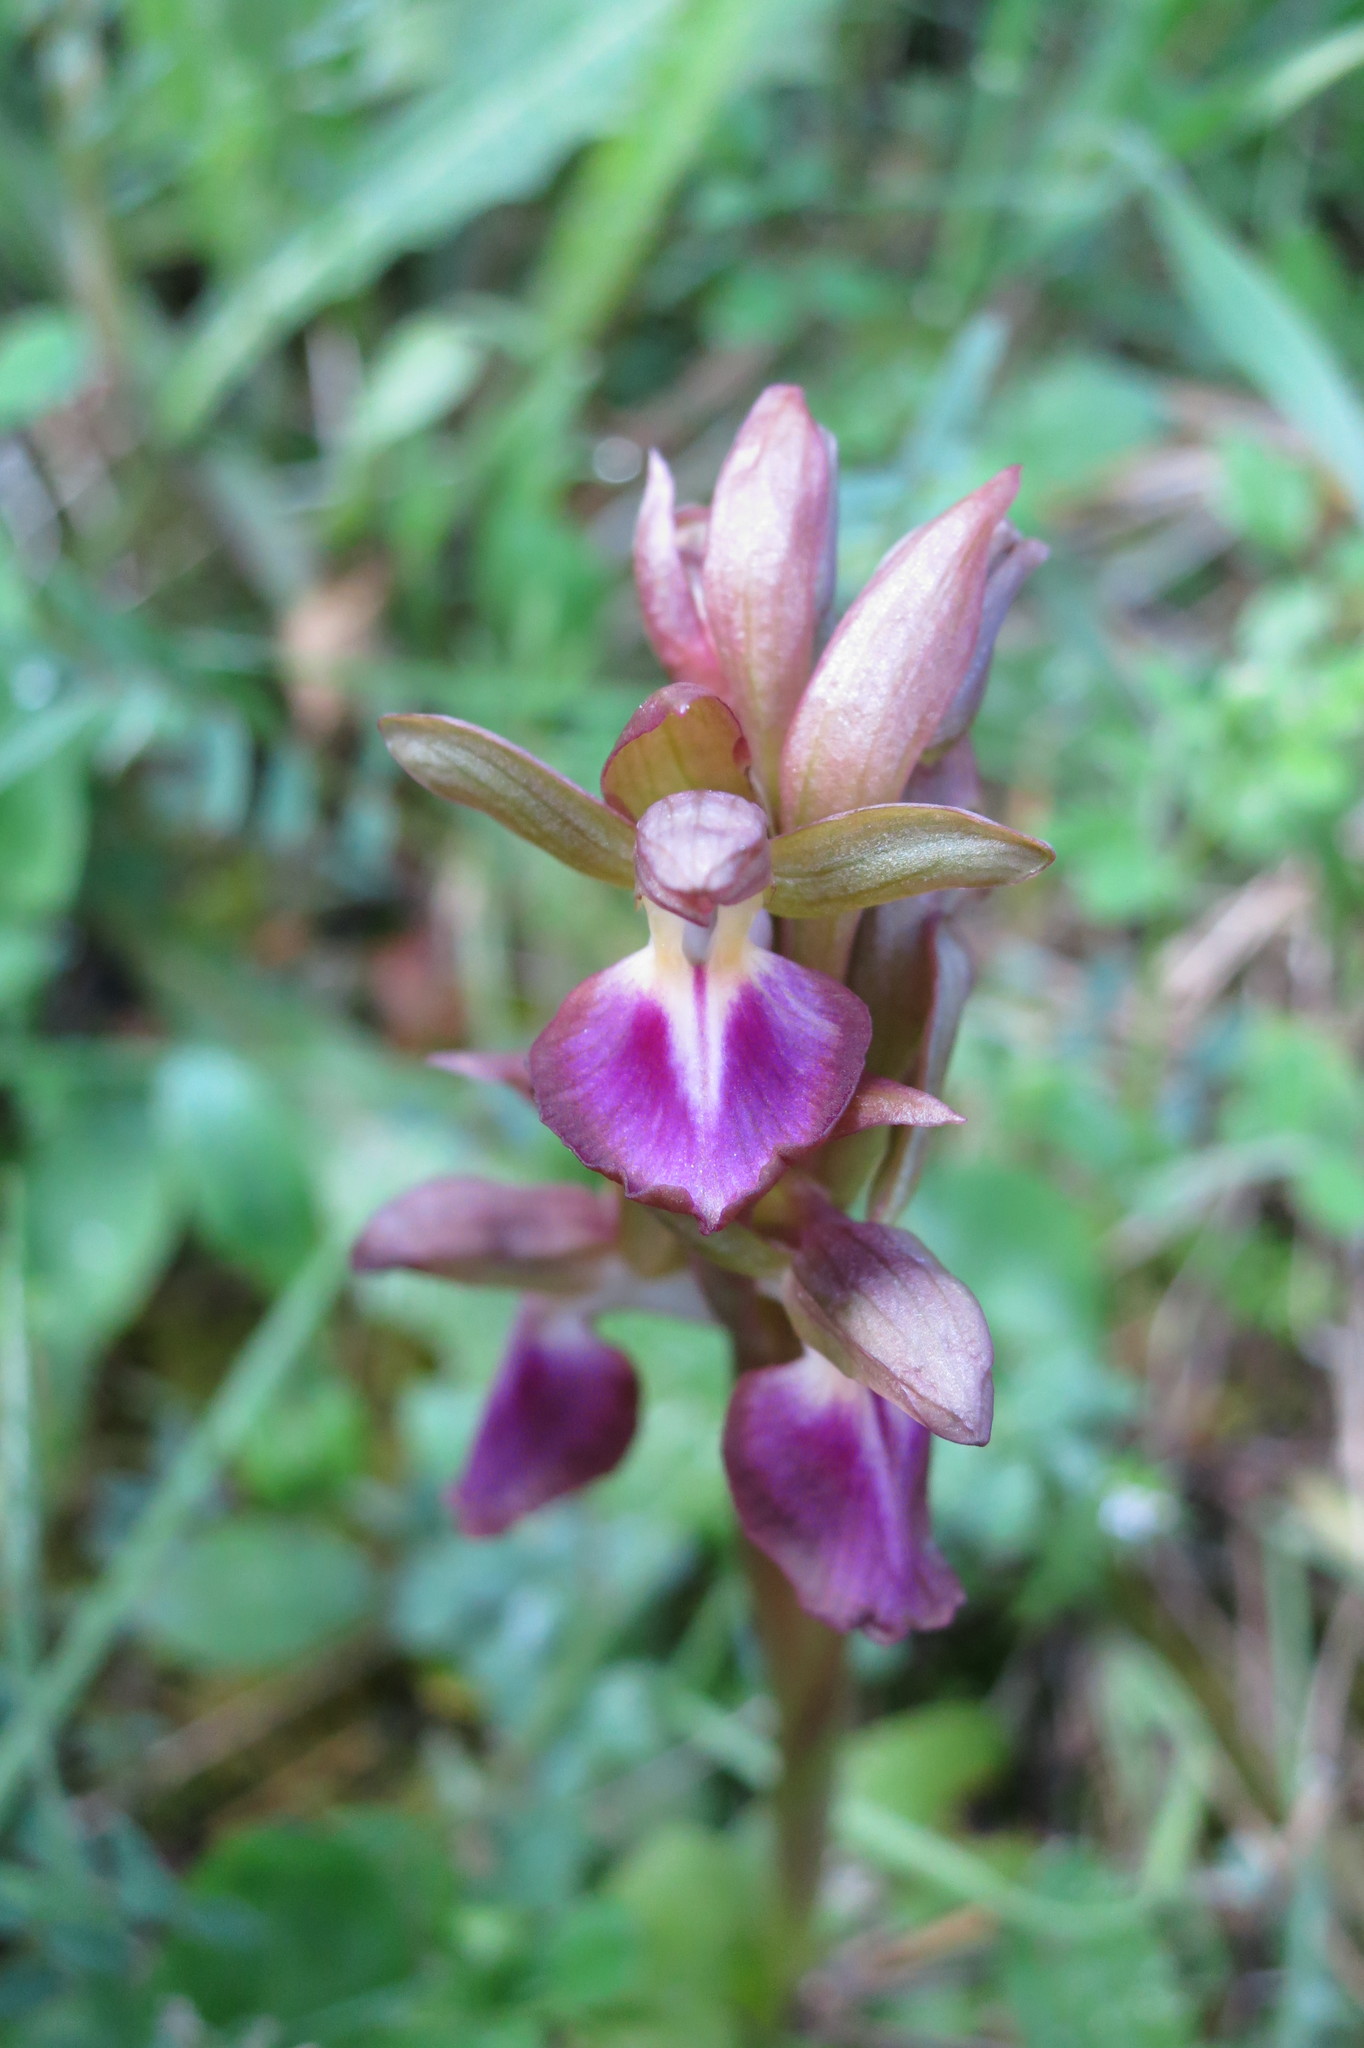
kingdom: Plantae
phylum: Tracheophyta
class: Liliopsida
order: Asparagales
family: Orchidaceae
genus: Anacamptis
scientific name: Anacamptis collina
